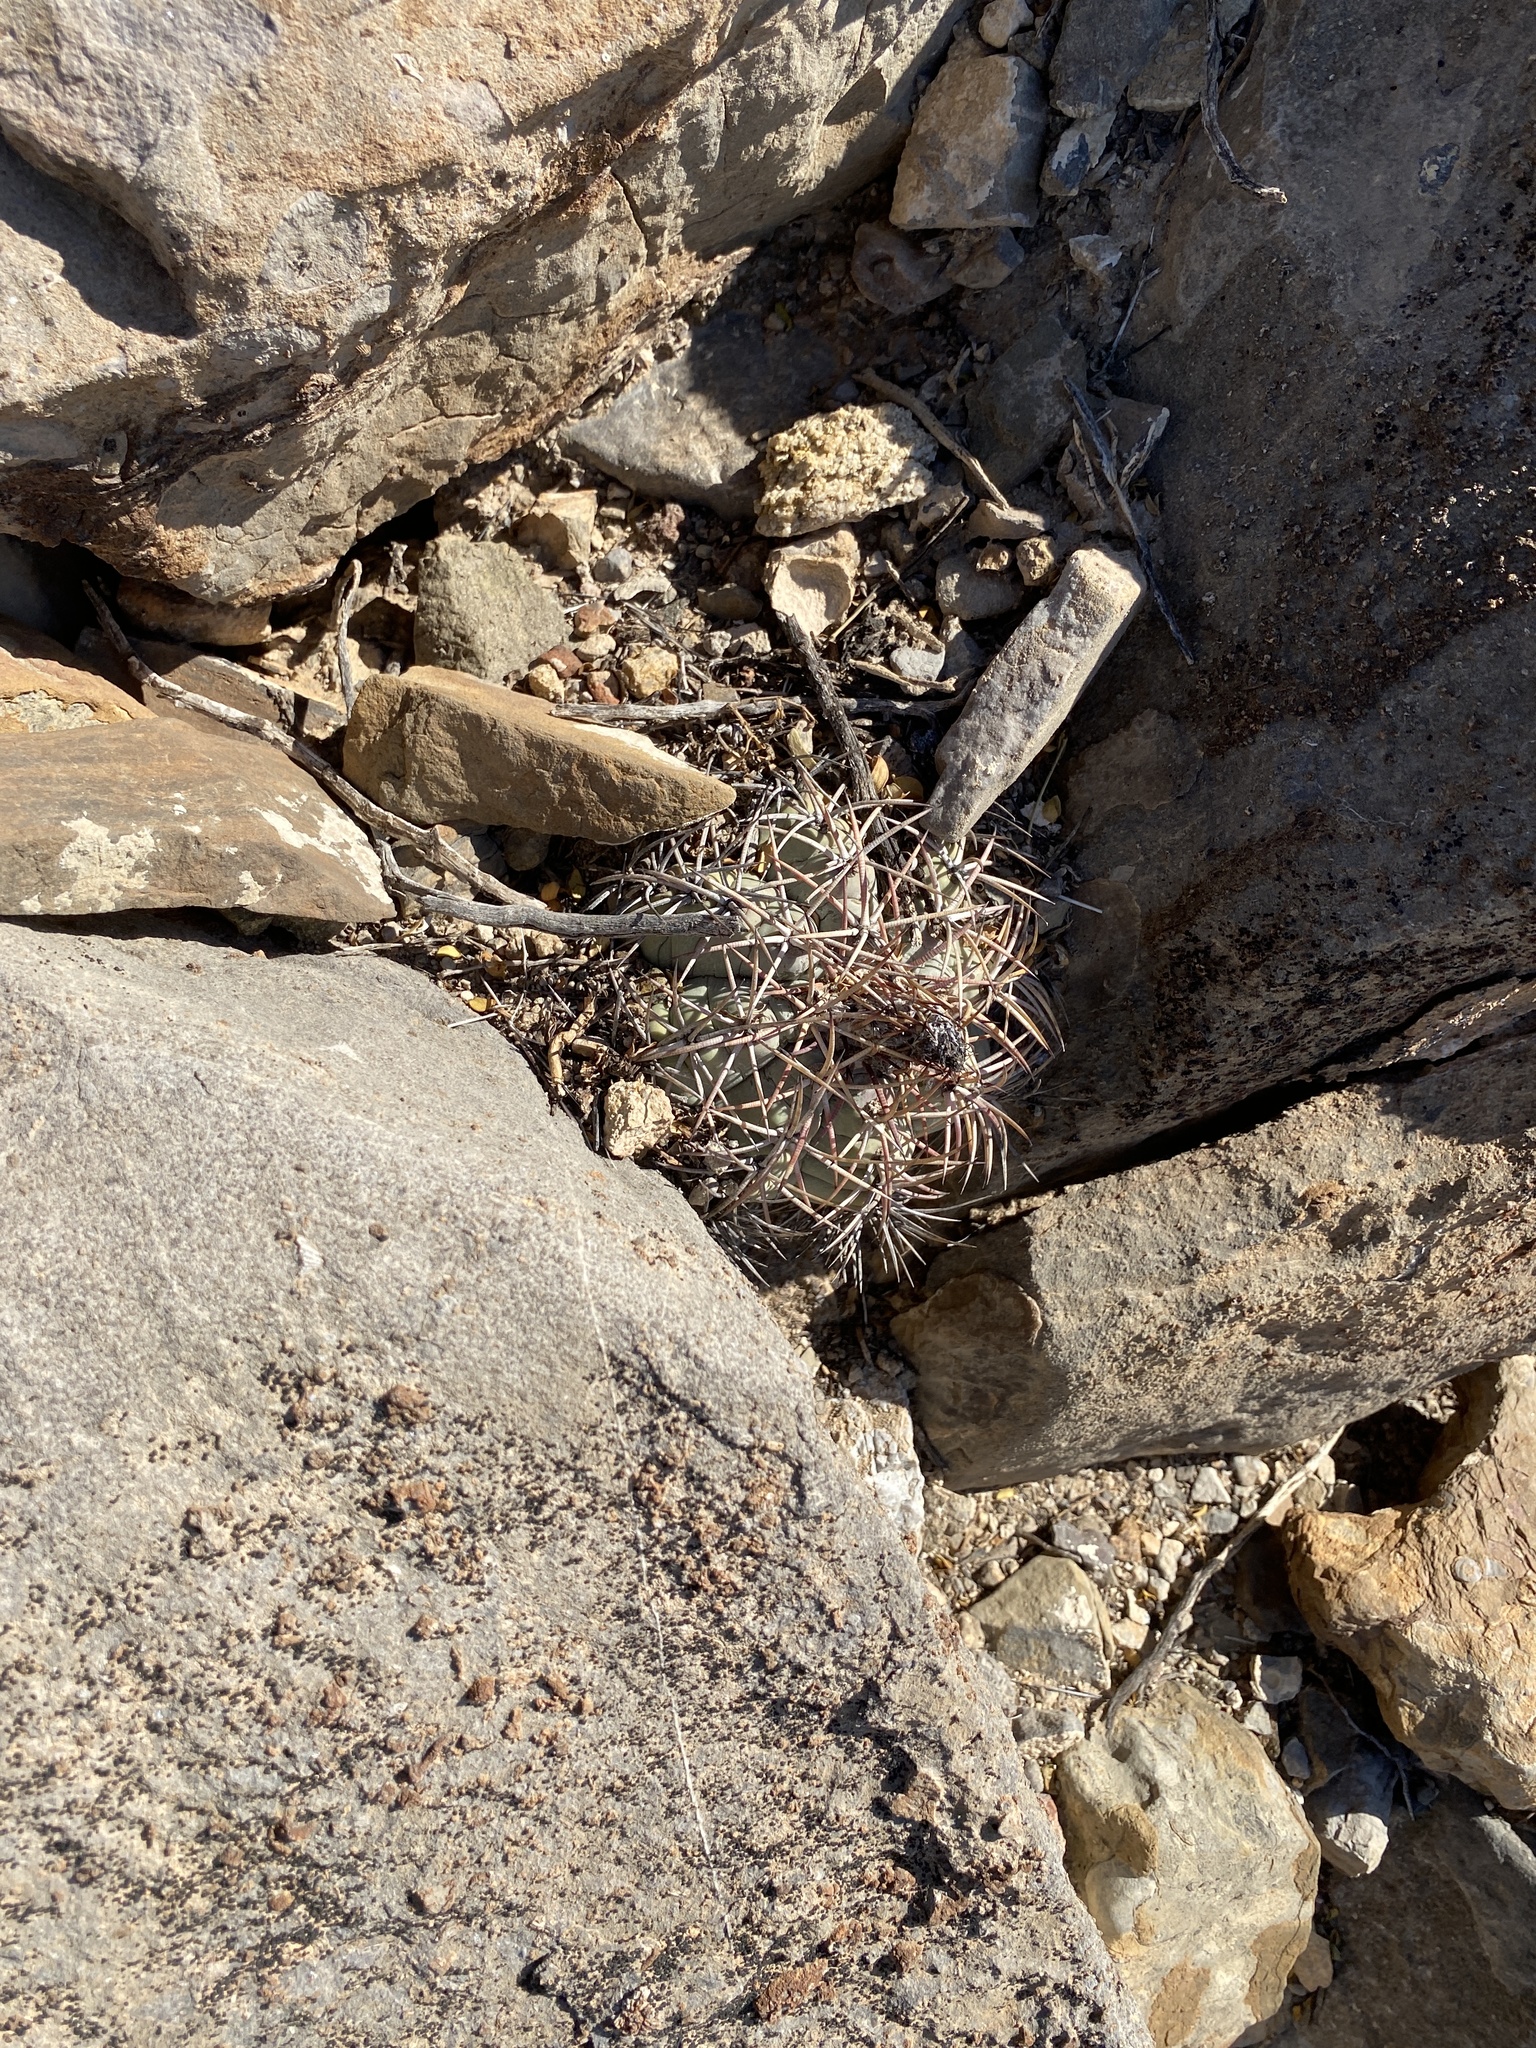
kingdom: Plantae
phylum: Tracheophyta
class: Magnoliopsida
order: Caryophyllales
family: Cactaceae
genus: Echinocactus
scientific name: Echinocactus horizonthalonius
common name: Devilshead
